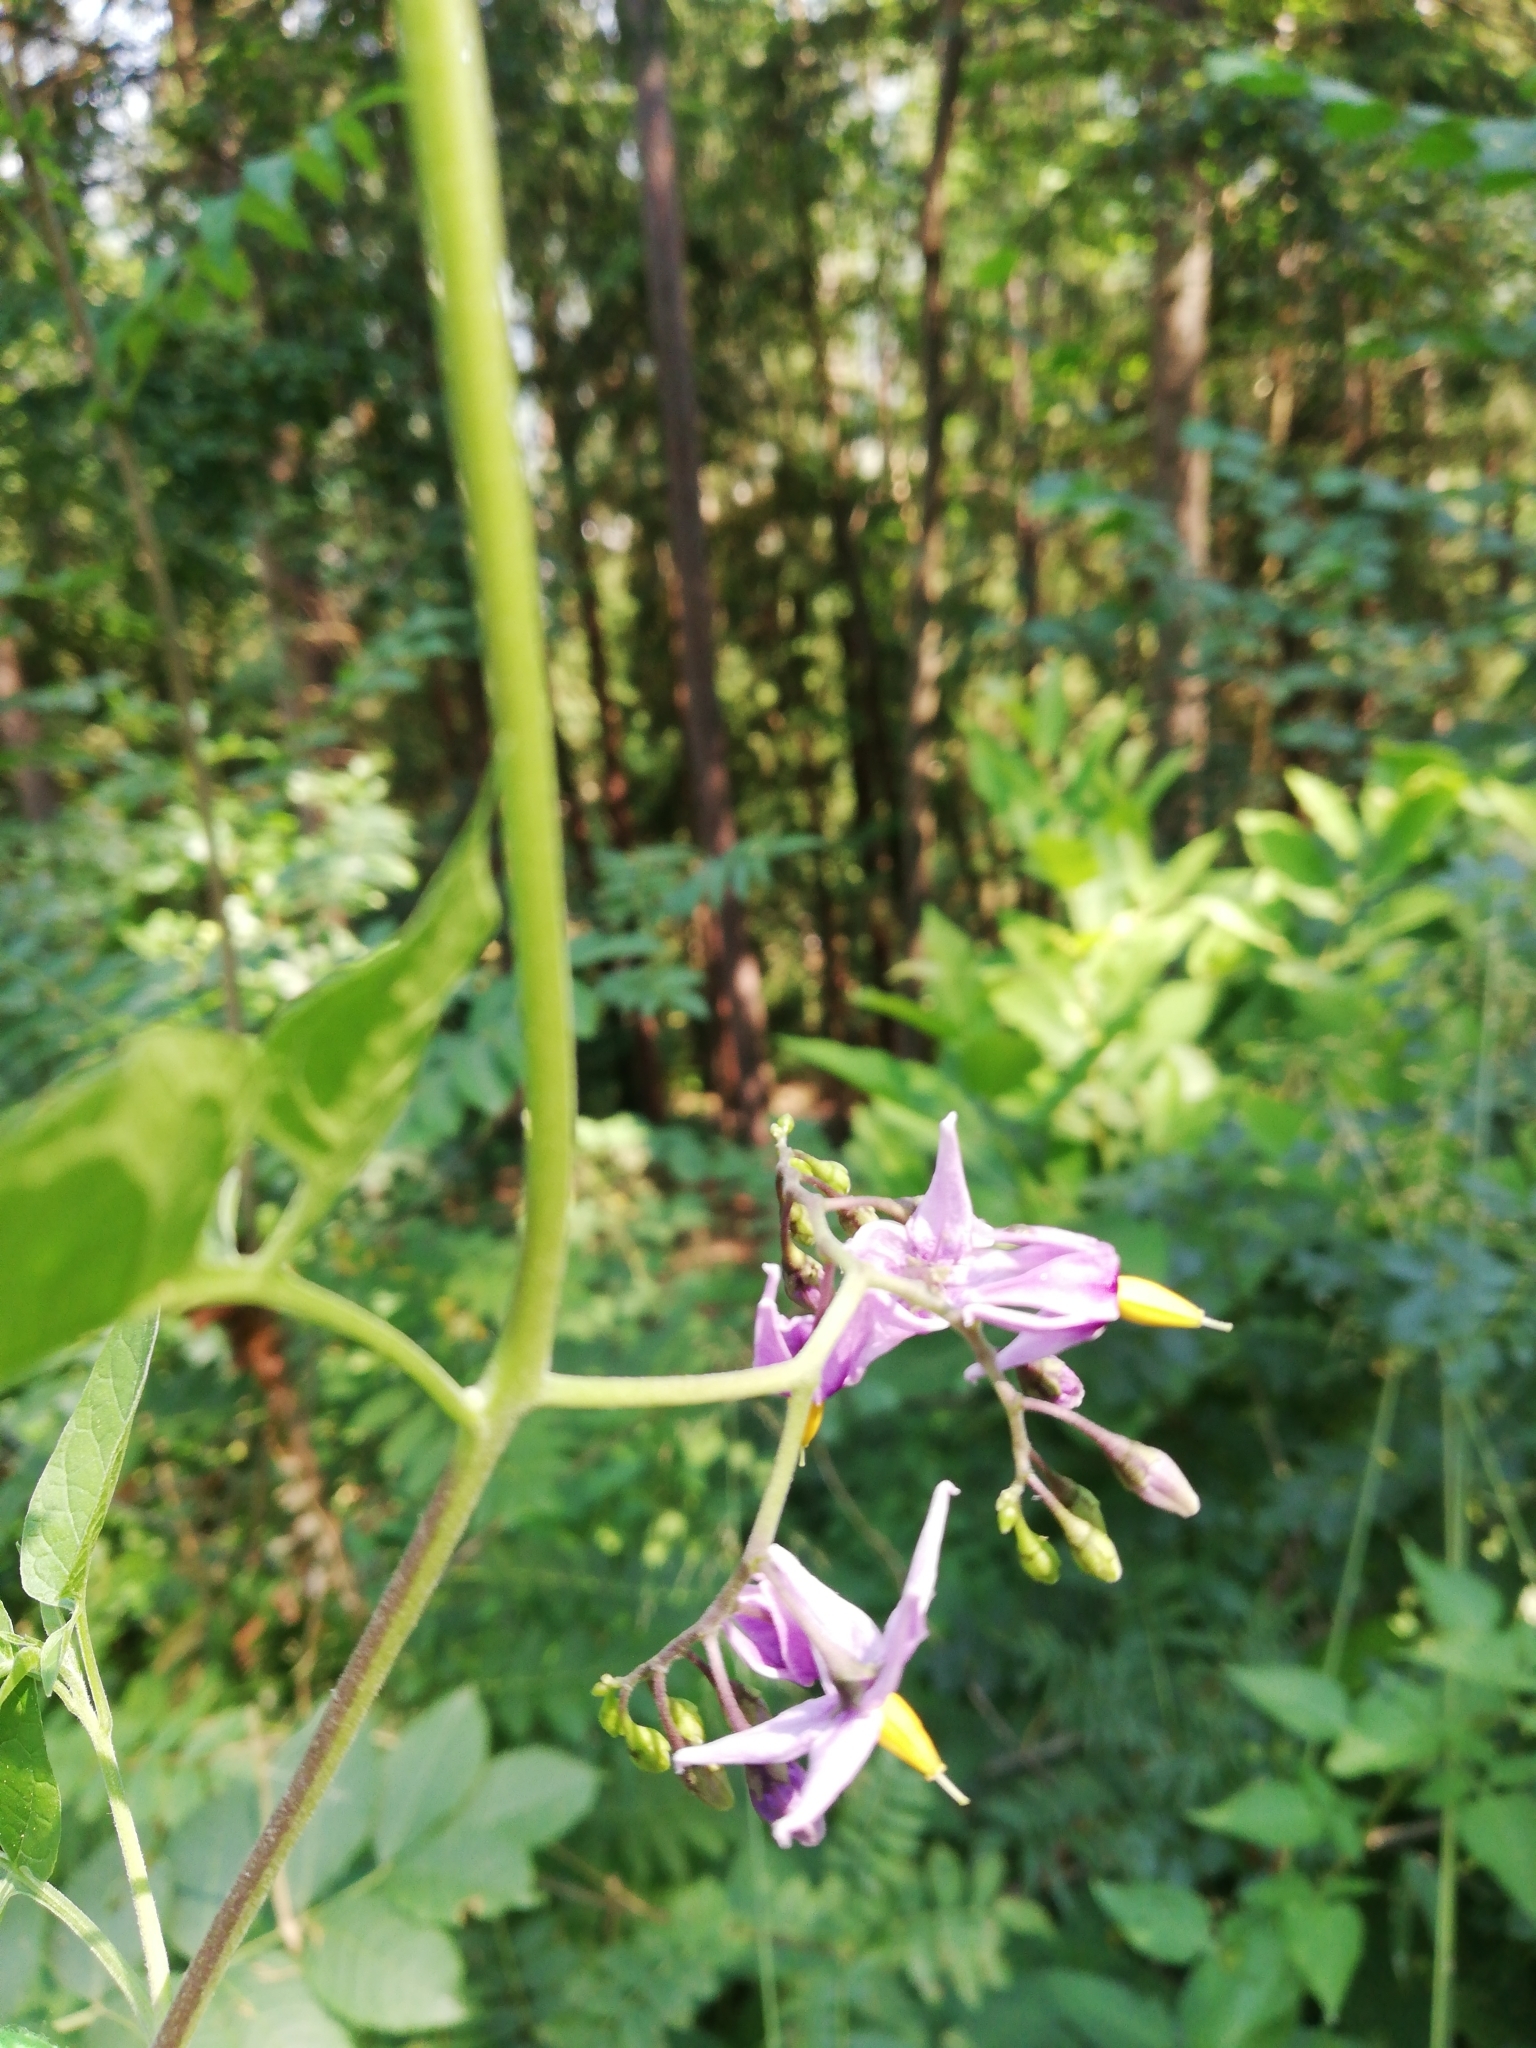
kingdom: Plantae
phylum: Tracheophyta
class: Magnoliopsida
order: Solanales
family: Solanaceae
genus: Solanum
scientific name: Solanum dulcamara
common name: Climbing nightshade
